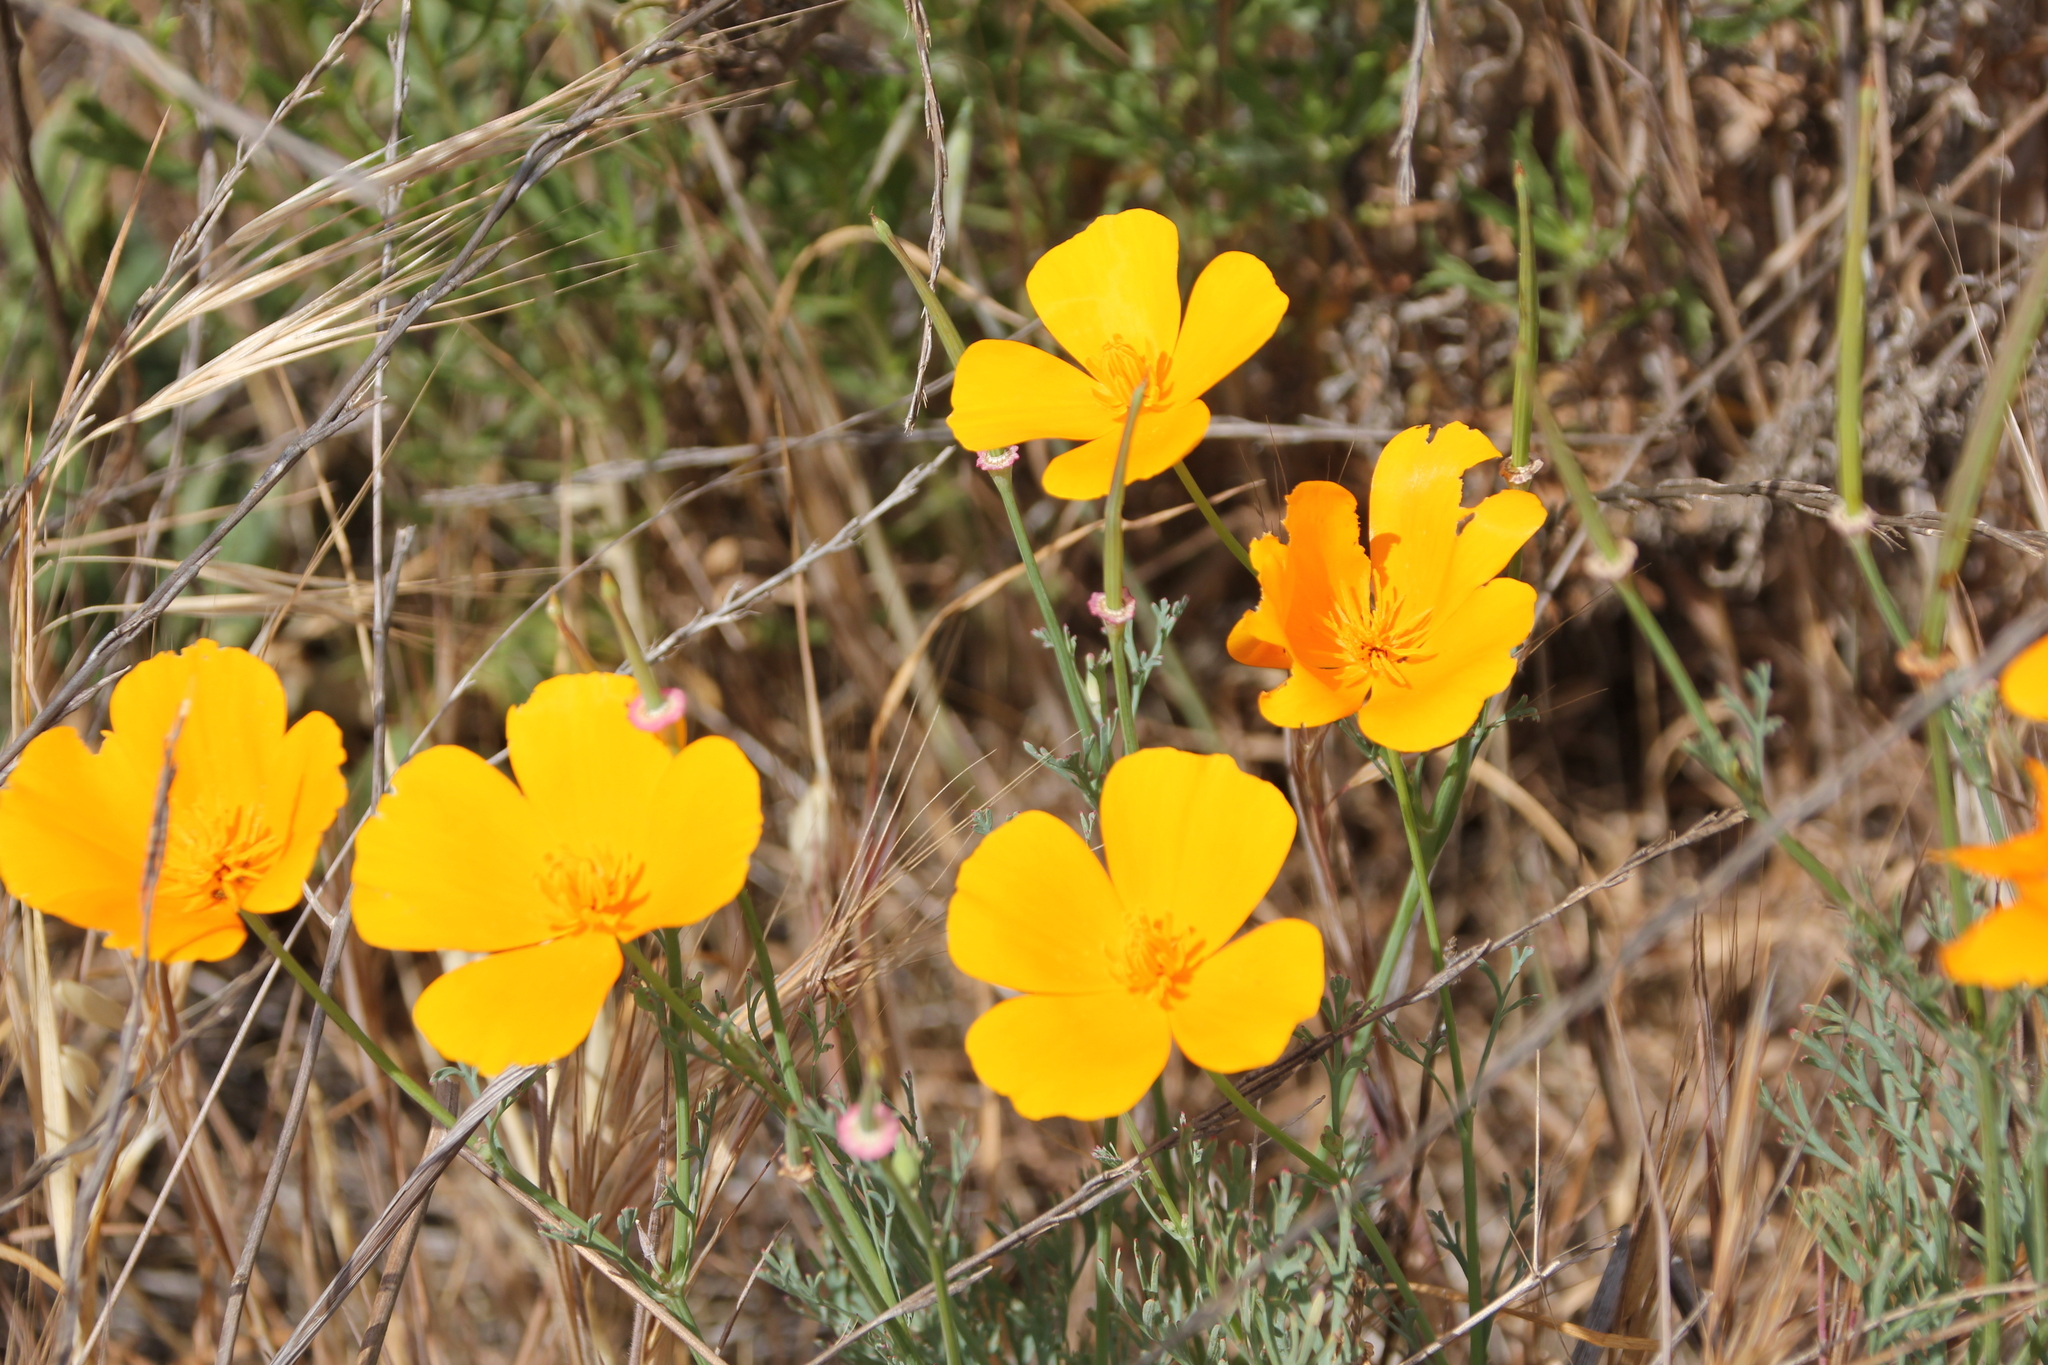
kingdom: Plantae
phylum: Tracheophyta
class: Magnoliopsida
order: Ranunculales
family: Papaveraceae
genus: Eschscholzia
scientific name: Eschscholzia californica
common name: California poppy
